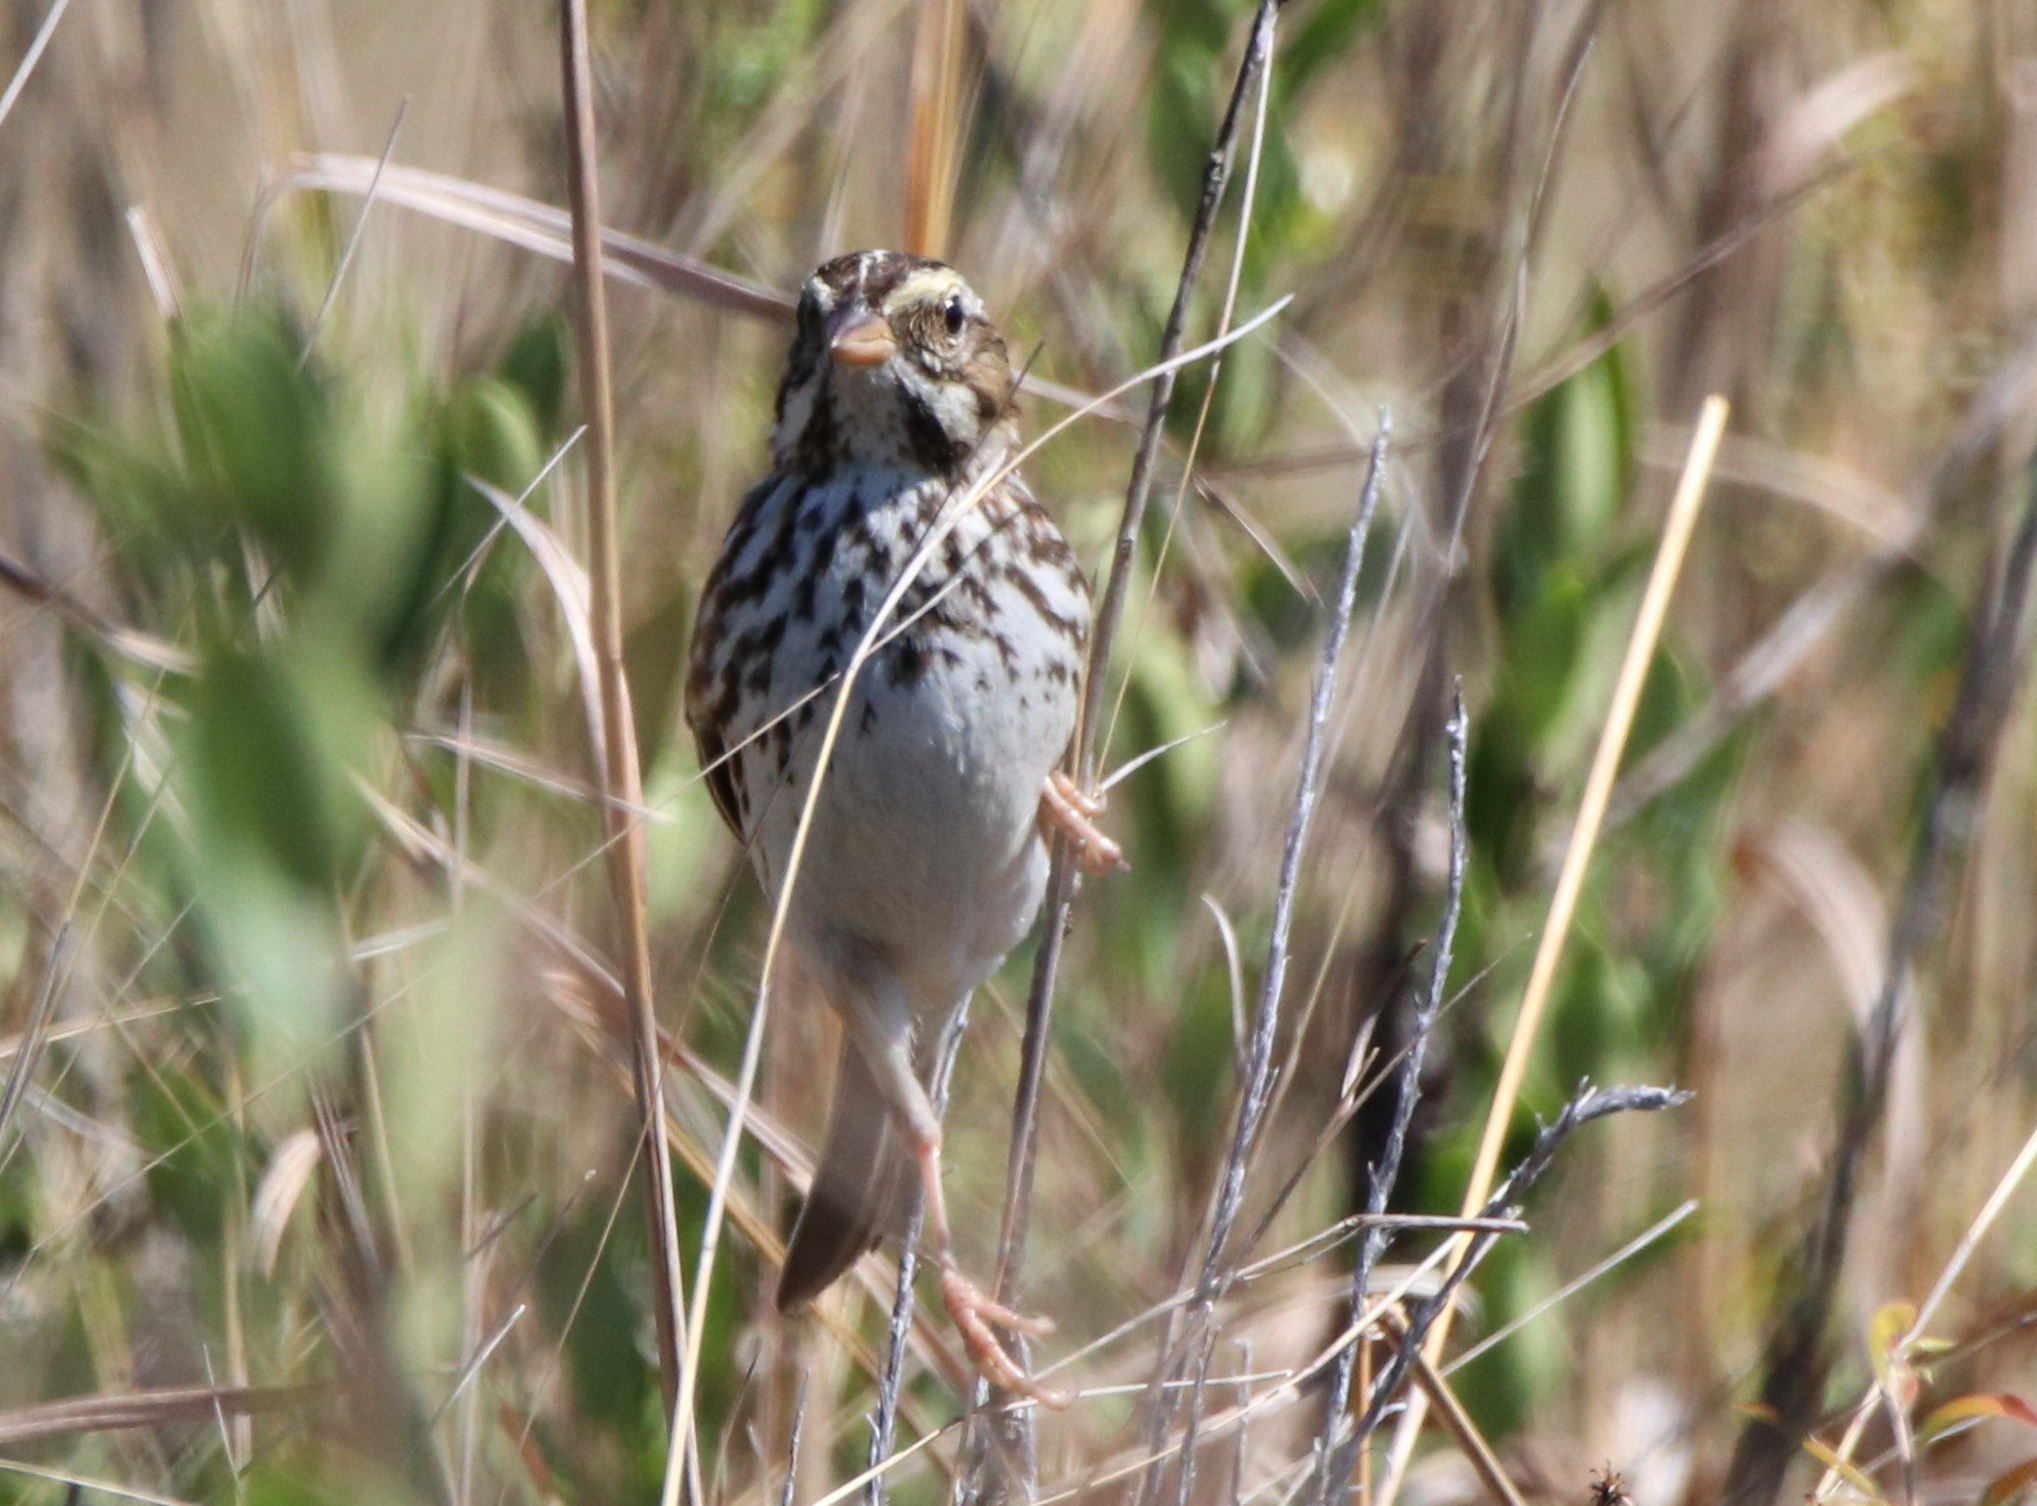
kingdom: Animalia
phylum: Chordata
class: Aves
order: Passeriformes
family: Passerellidae
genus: Passerculus
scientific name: Passerculus sandwichensis
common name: Savannah sparrow
